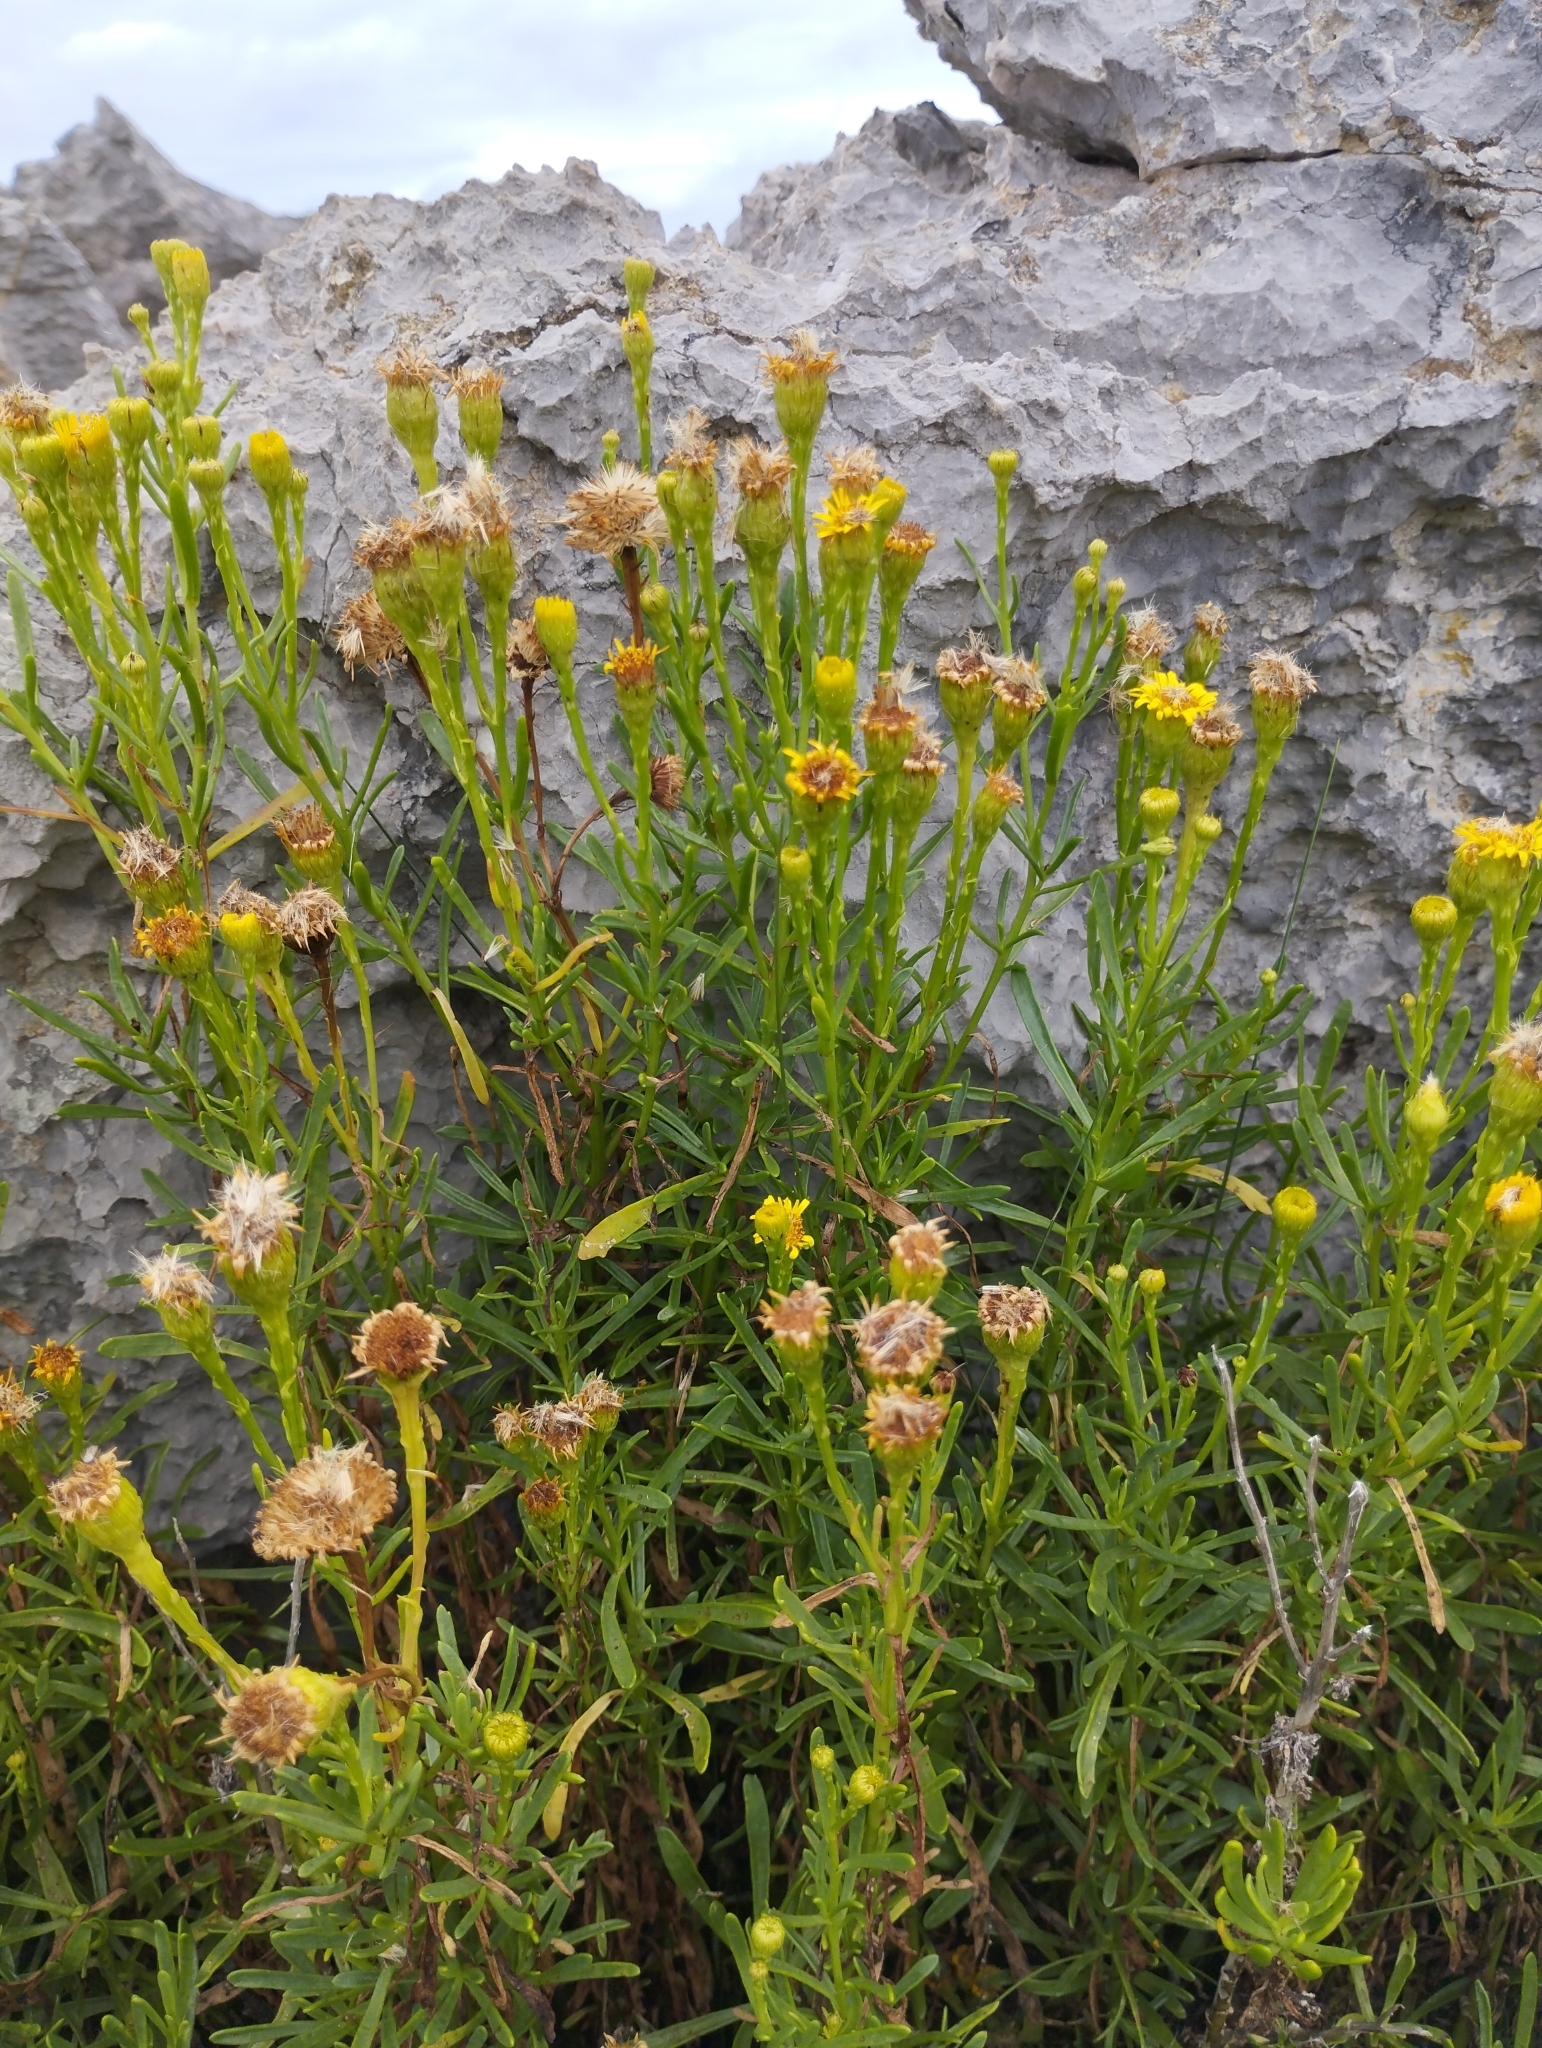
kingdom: Plantae
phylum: Tracheophyta
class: Magnoliopsida
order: Asterales
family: Asteraceae
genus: Limbarda
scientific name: Limbarda crithmoides
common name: Golden samphire
